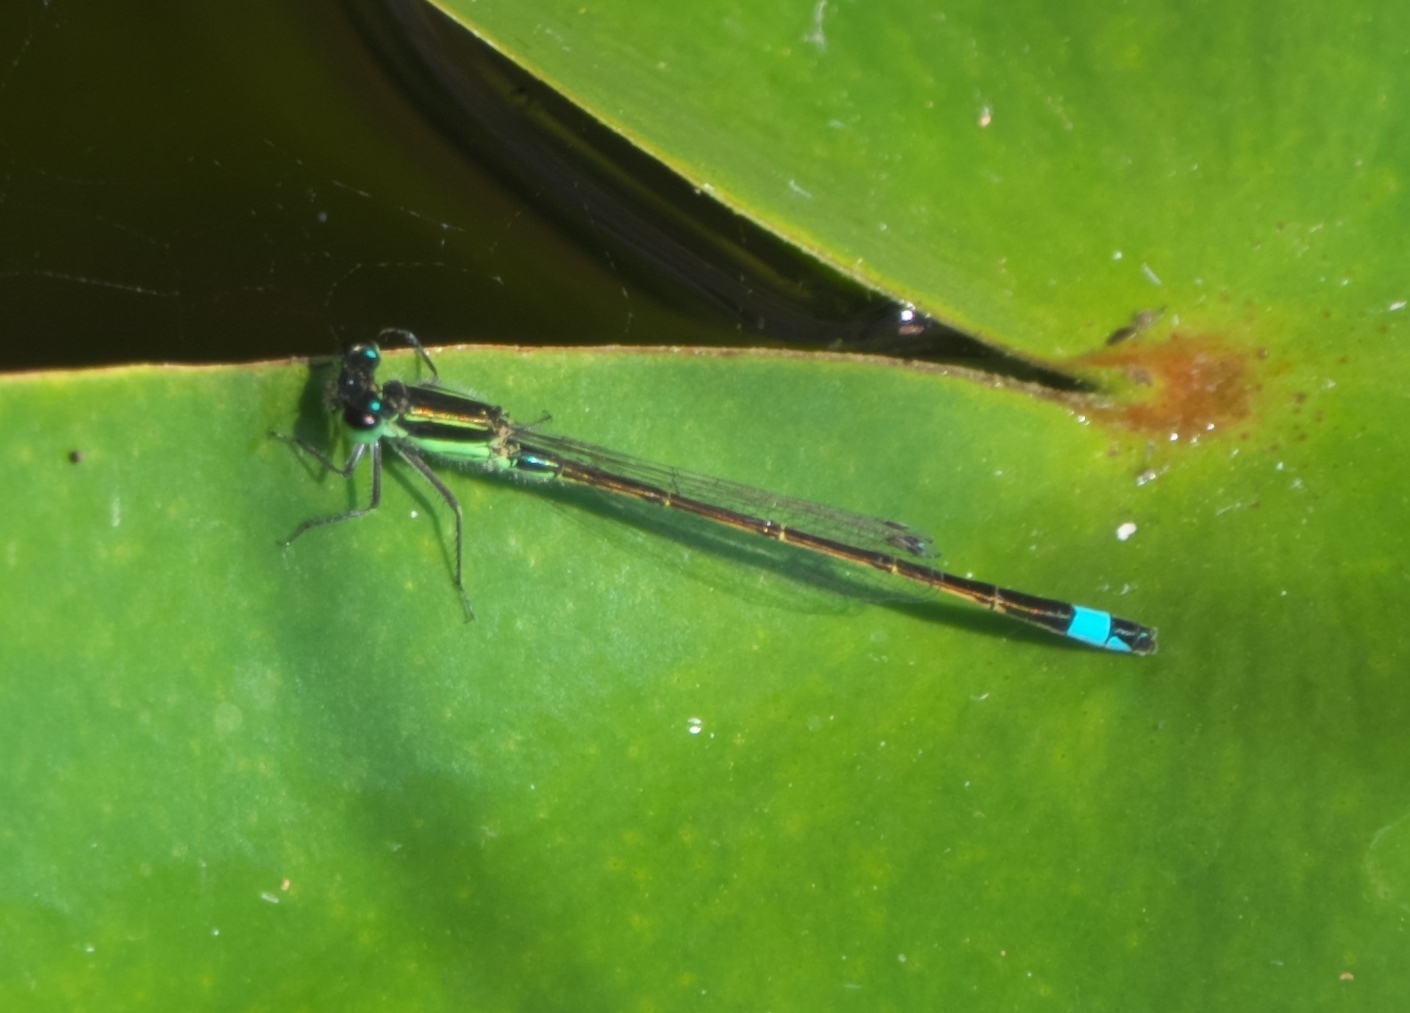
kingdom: Animalia
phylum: Arthropoda
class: Insecta
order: Odonata
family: Coenagrionidae
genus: Ischnura
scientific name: Ischnura ramburii
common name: Rambur's forktail
